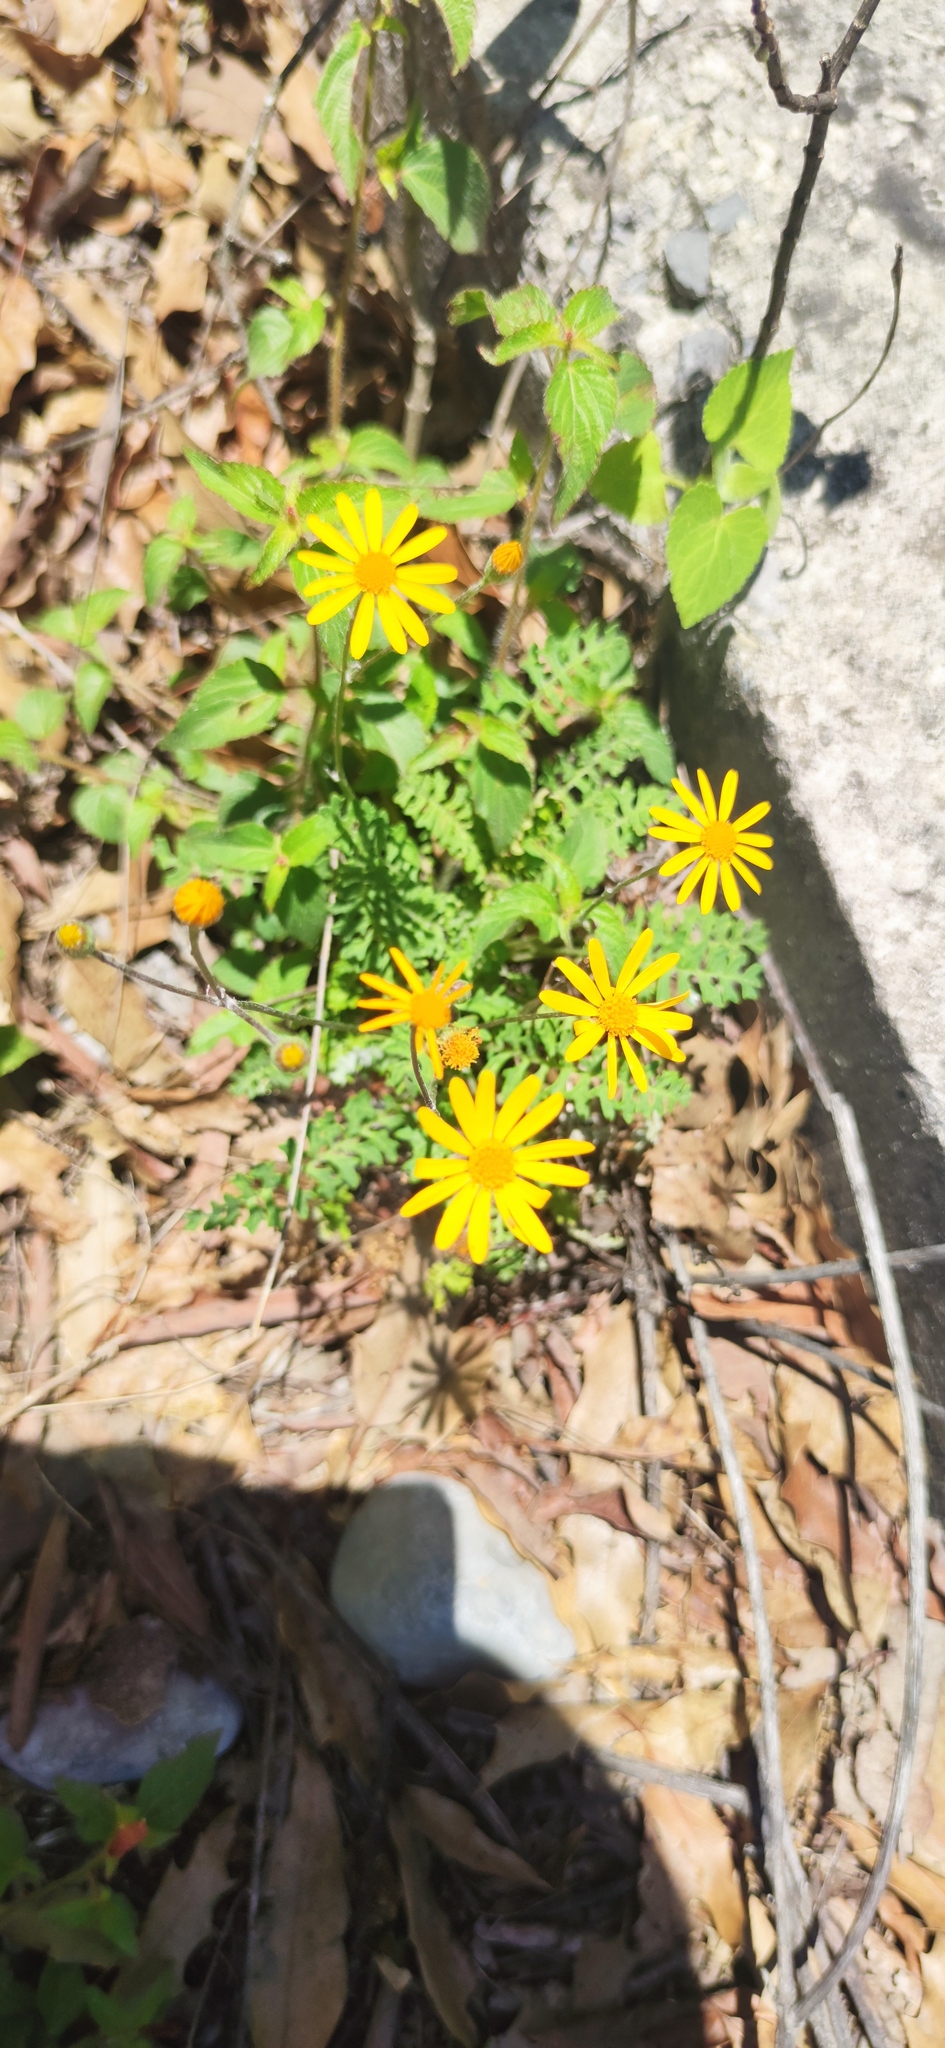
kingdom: Plantae
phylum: Tracheophyta
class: Magnoliopsida
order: Asterales
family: Asteraceae
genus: Packera
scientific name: Packera montereyana
